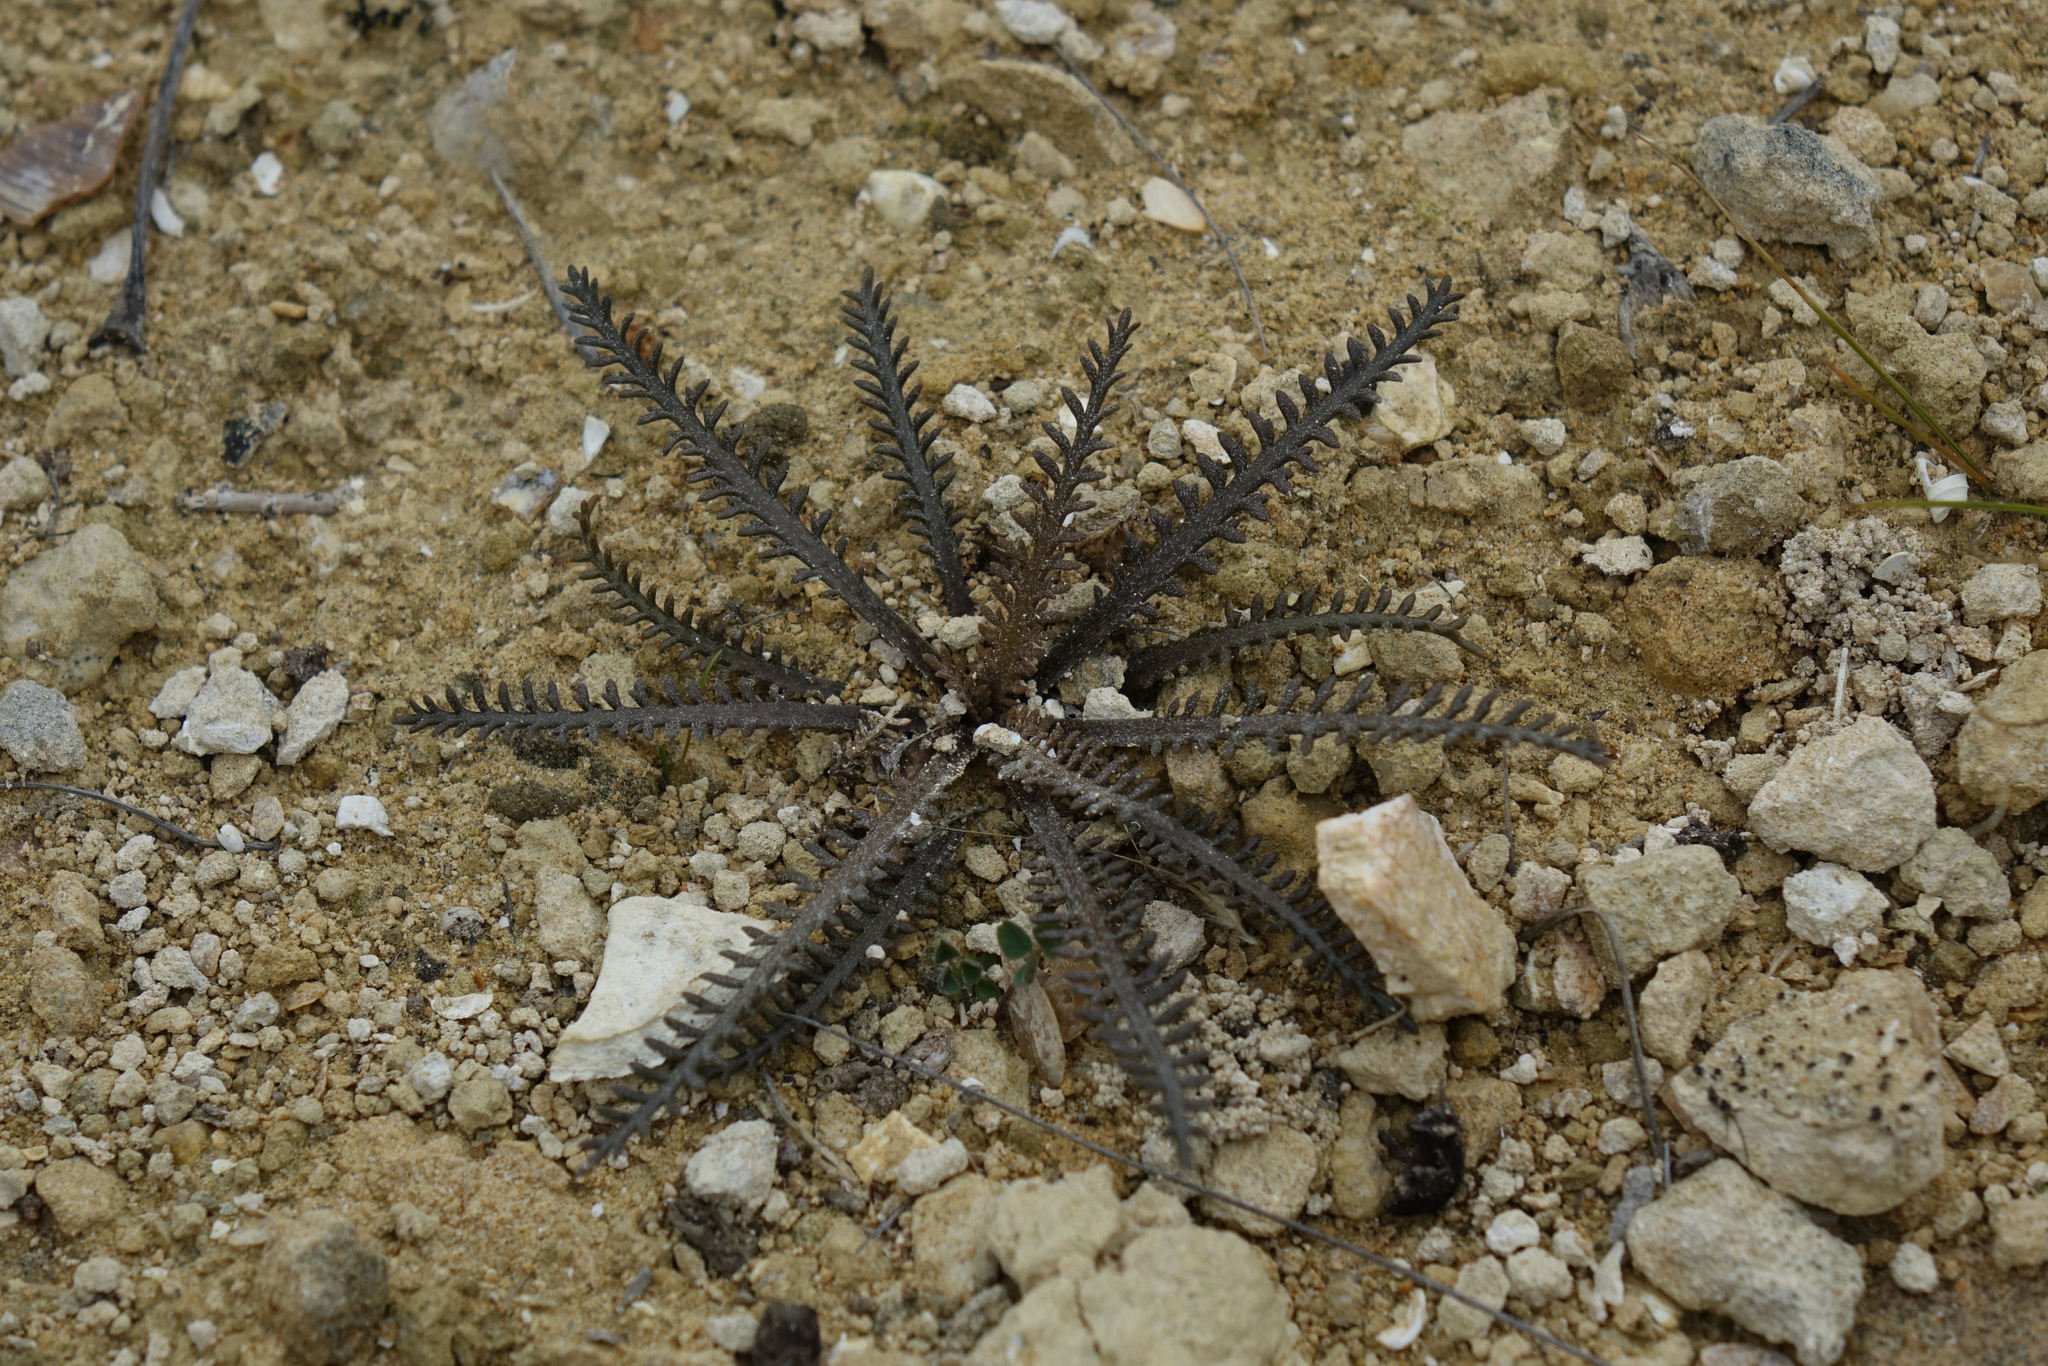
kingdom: Plantae
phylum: Tracheophyta
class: Magnoliopsida
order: Brassicales
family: Brassicaceae
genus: Lepidium
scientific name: Lepidium sisymbrioides
